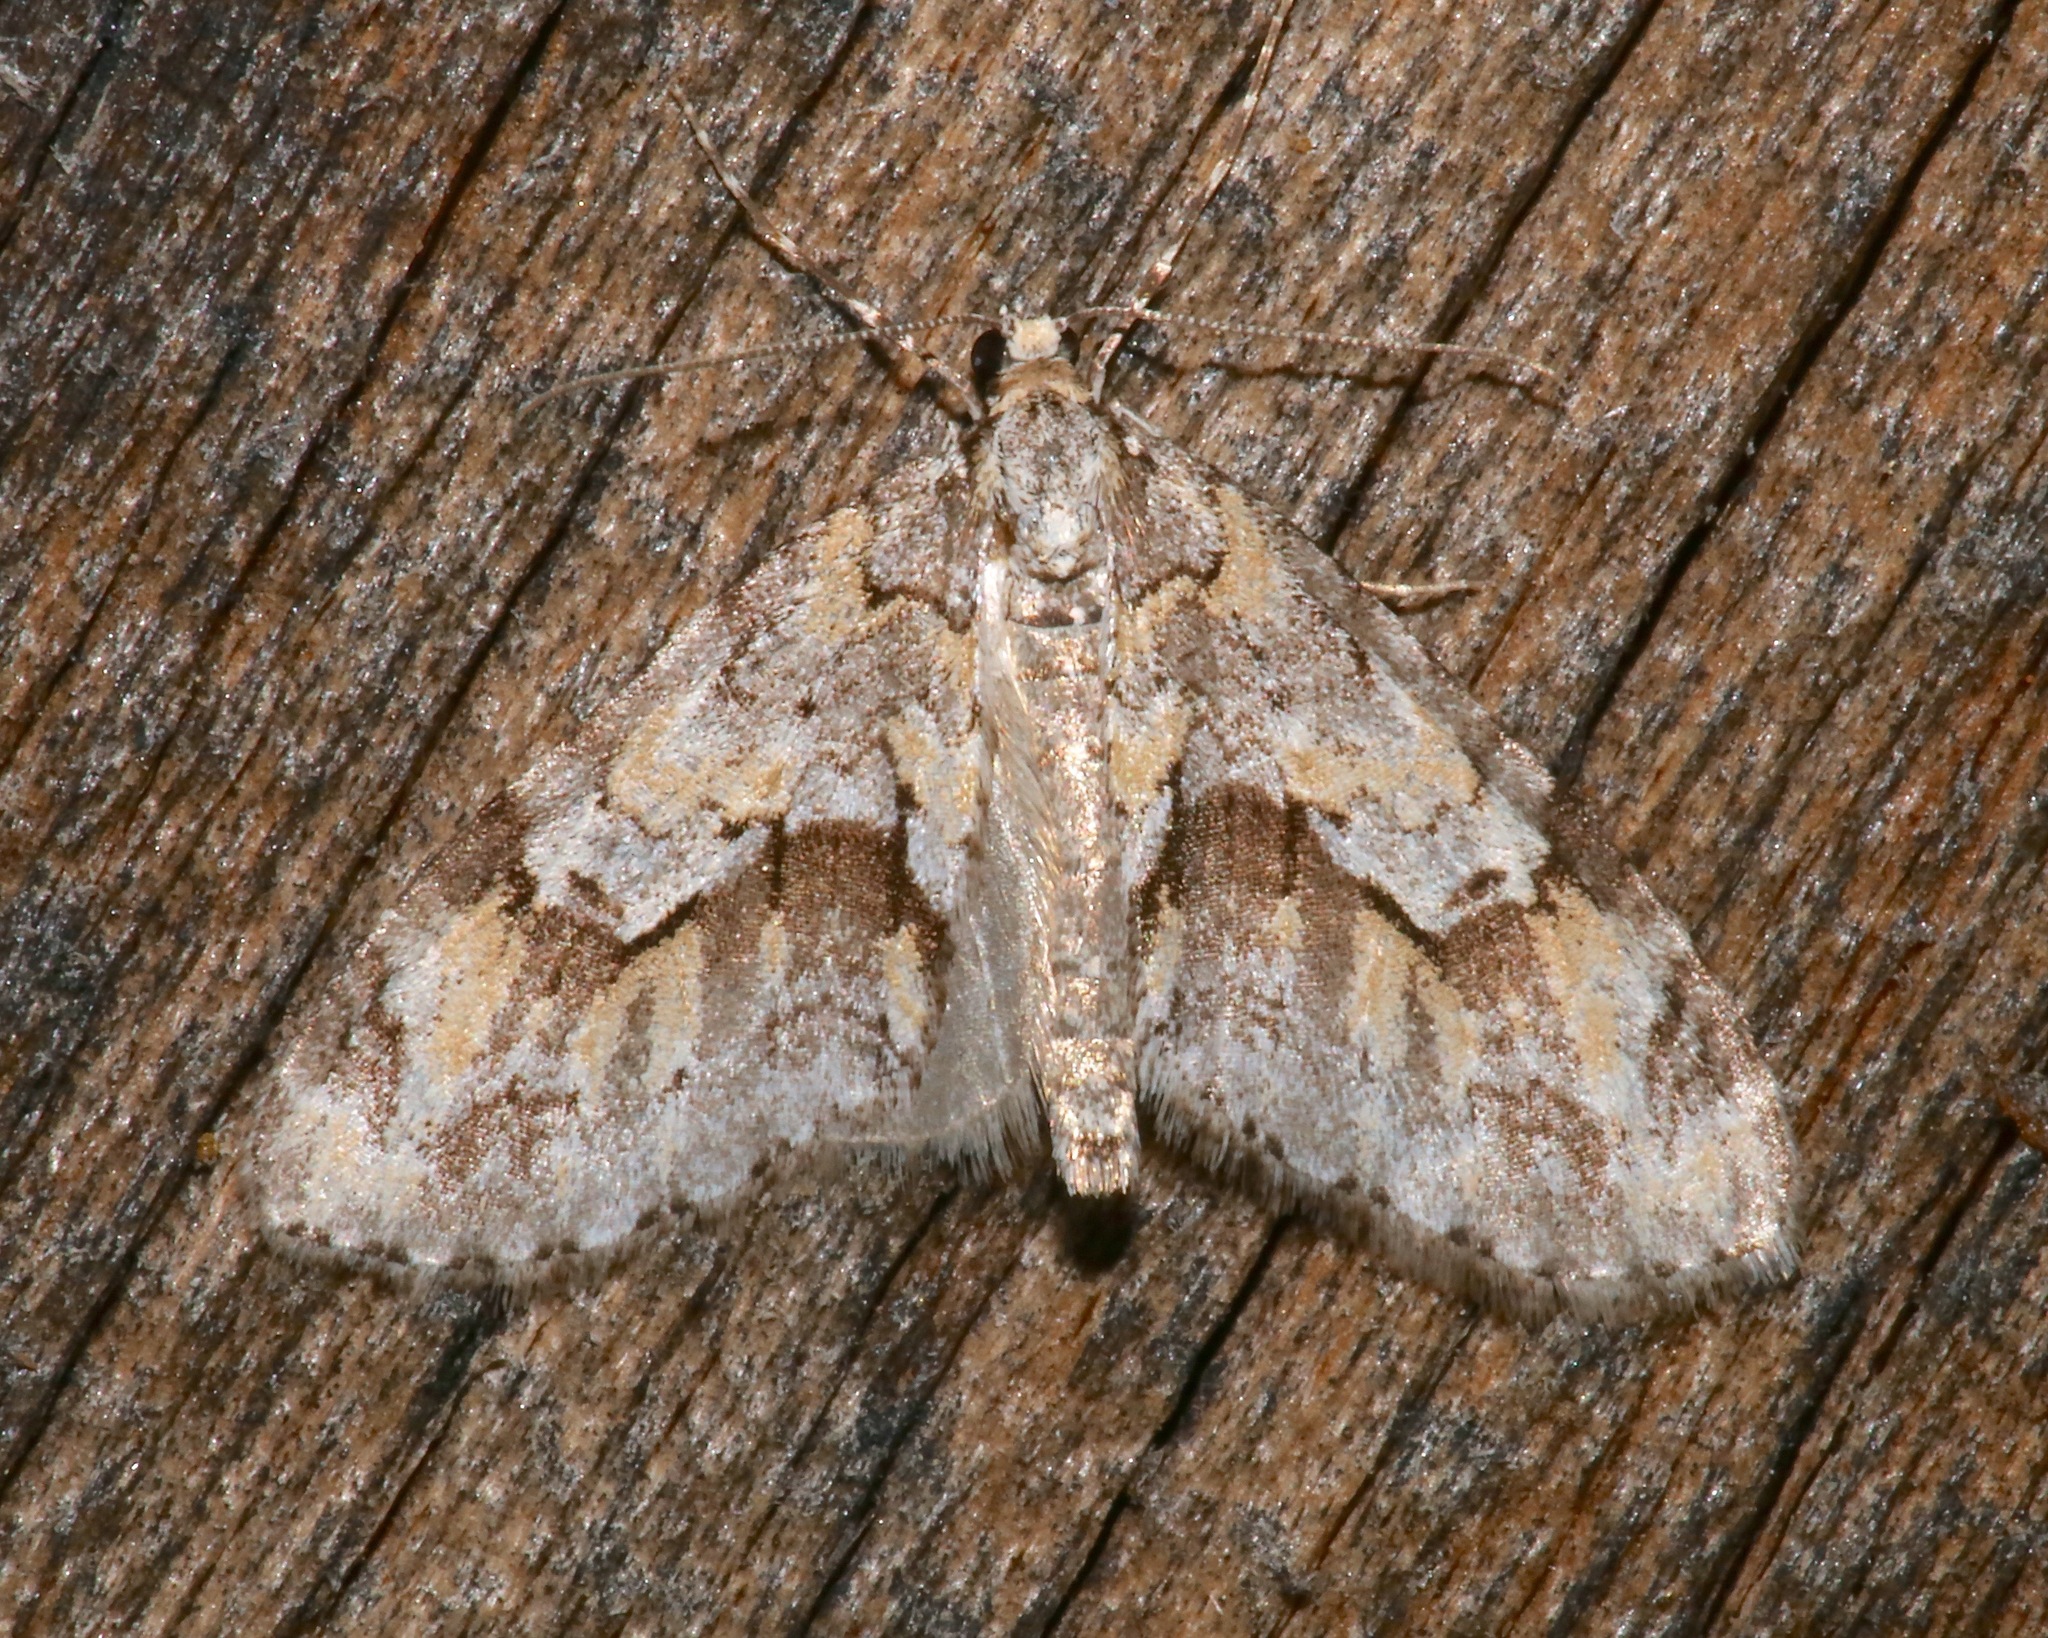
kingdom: Animalia
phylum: Arthropoda
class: Insecta
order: Lepidoptera
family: Geometridae
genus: Cladara
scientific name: Cladara limitaria
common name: Mottled gray carpet
